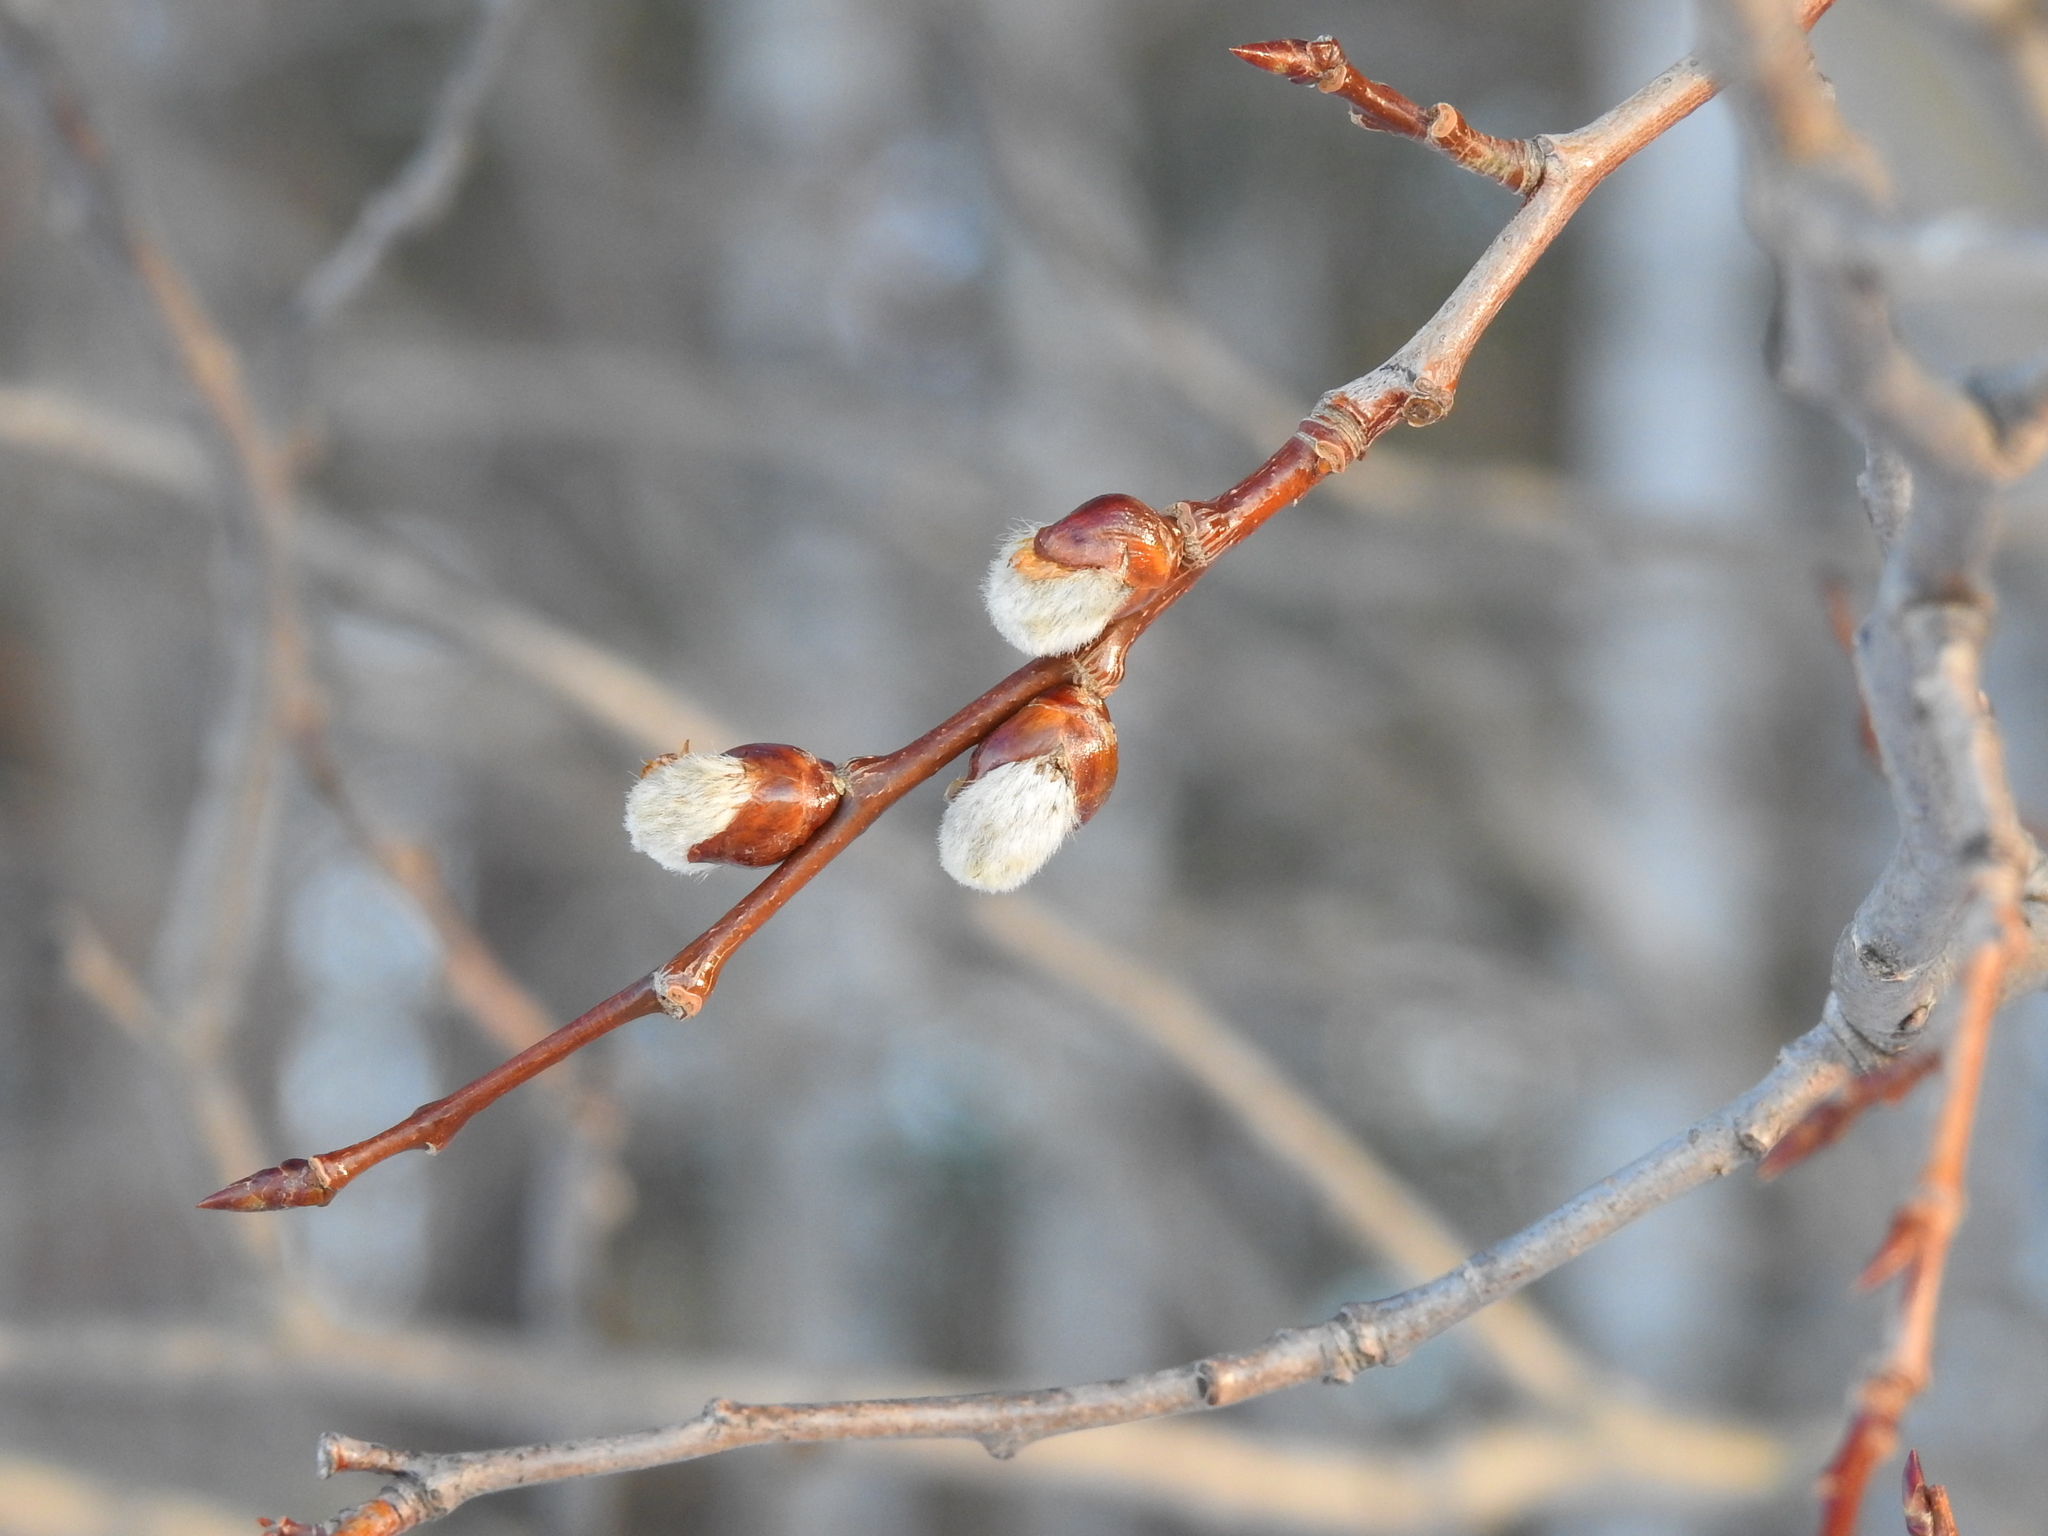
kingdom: Plantae
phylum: Tracheophyta
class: Magnoliopsida
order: Malpighiales
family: Salicaceae
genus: Populus
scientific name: Populus tremula
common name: European aspen
